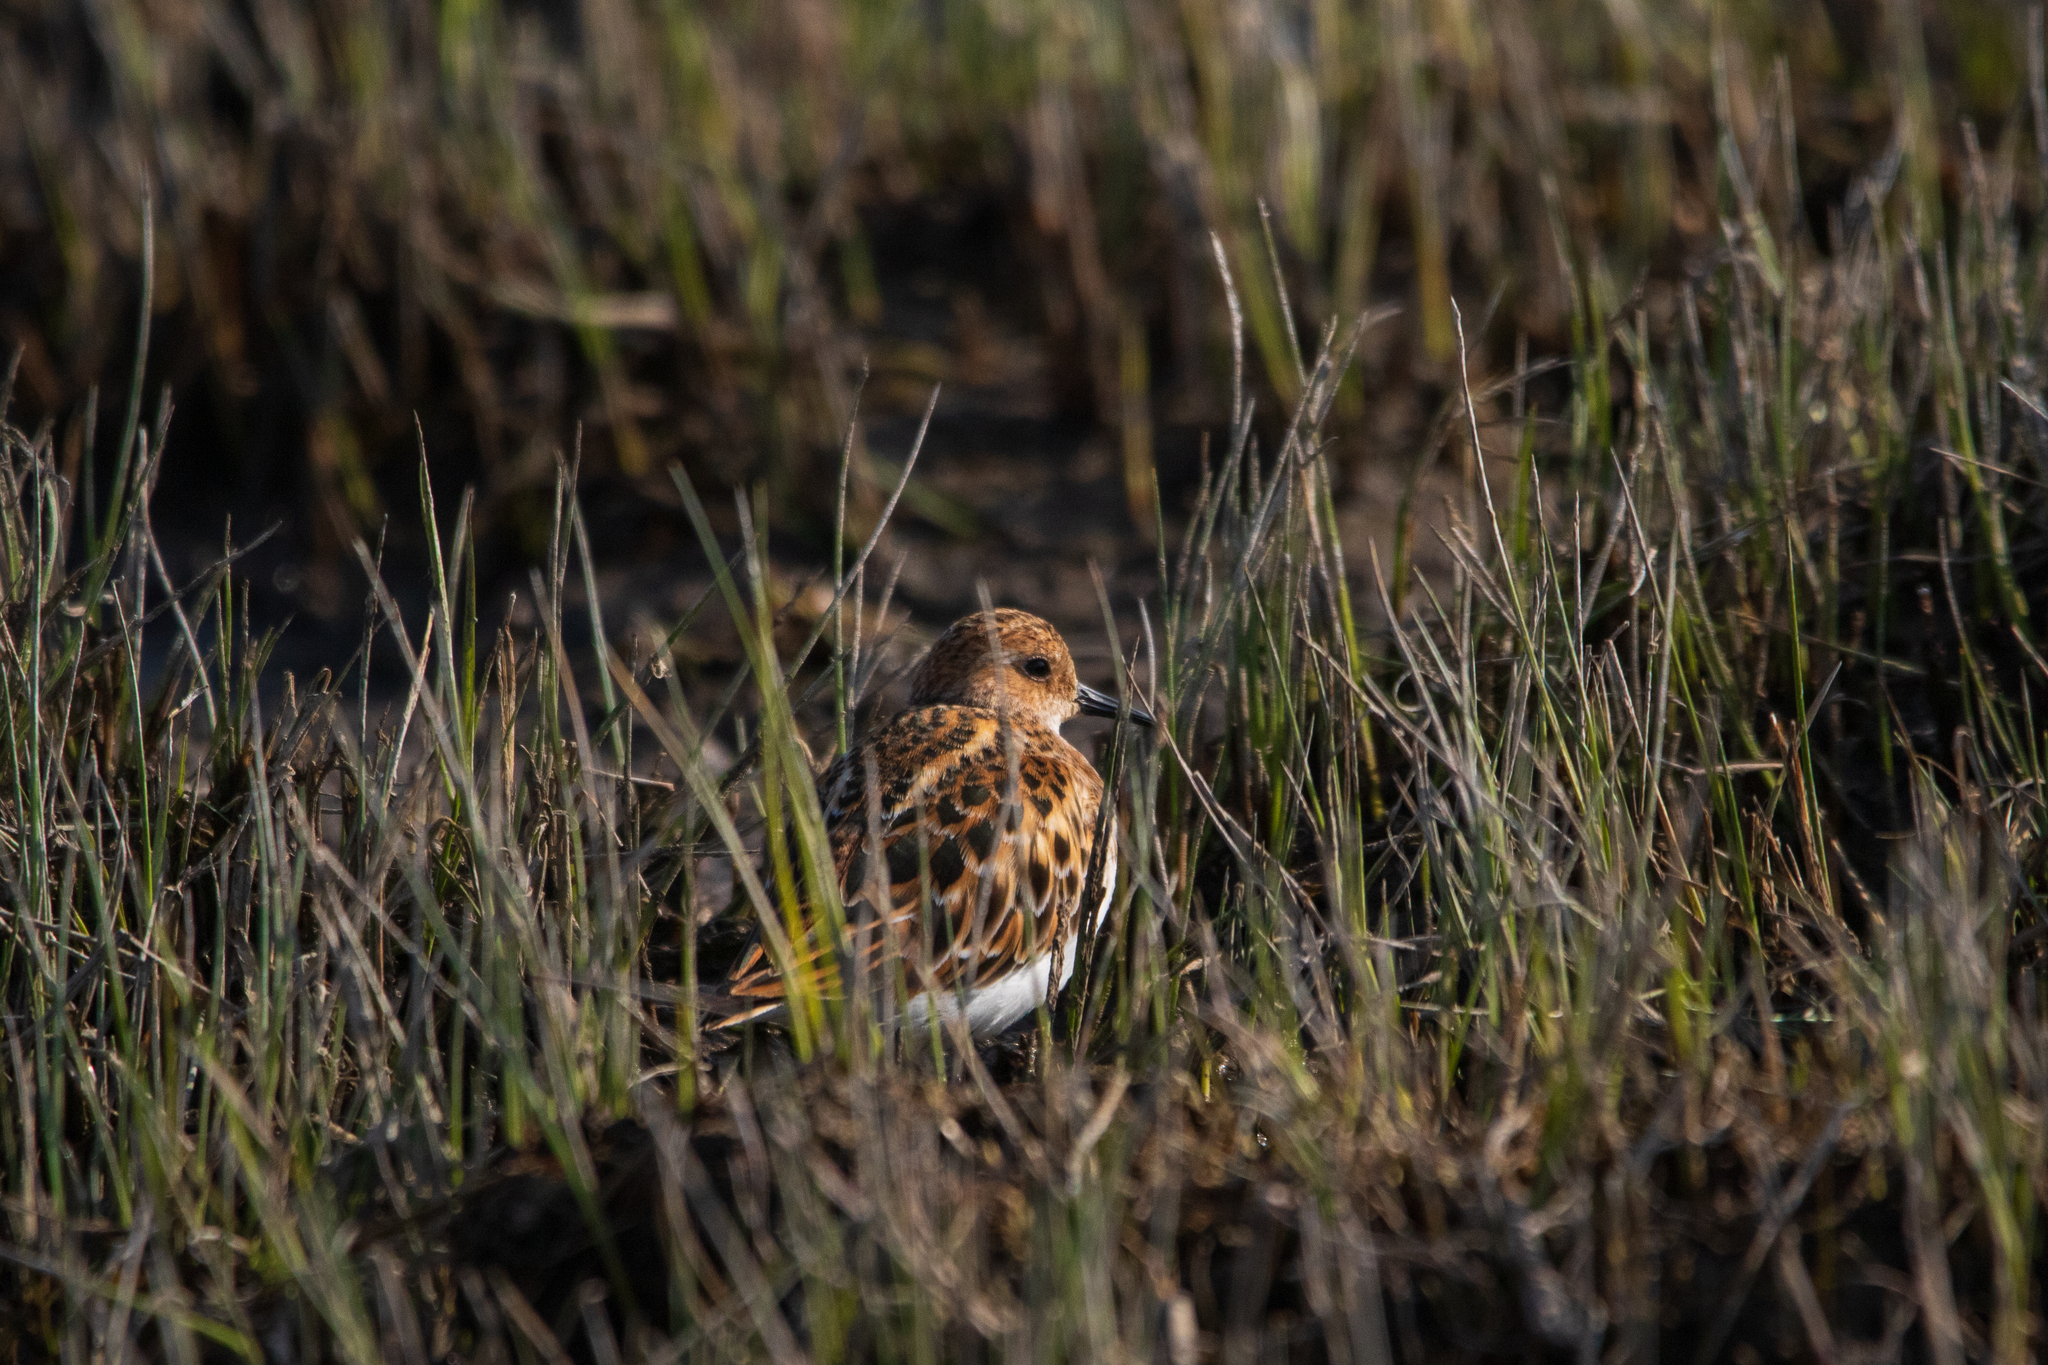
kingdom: Animalia
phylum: Chordata
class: Aves
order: Charadriiformes
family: Scolopacidae
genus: Calidris
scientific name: Calidris minuta
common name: Little stint
